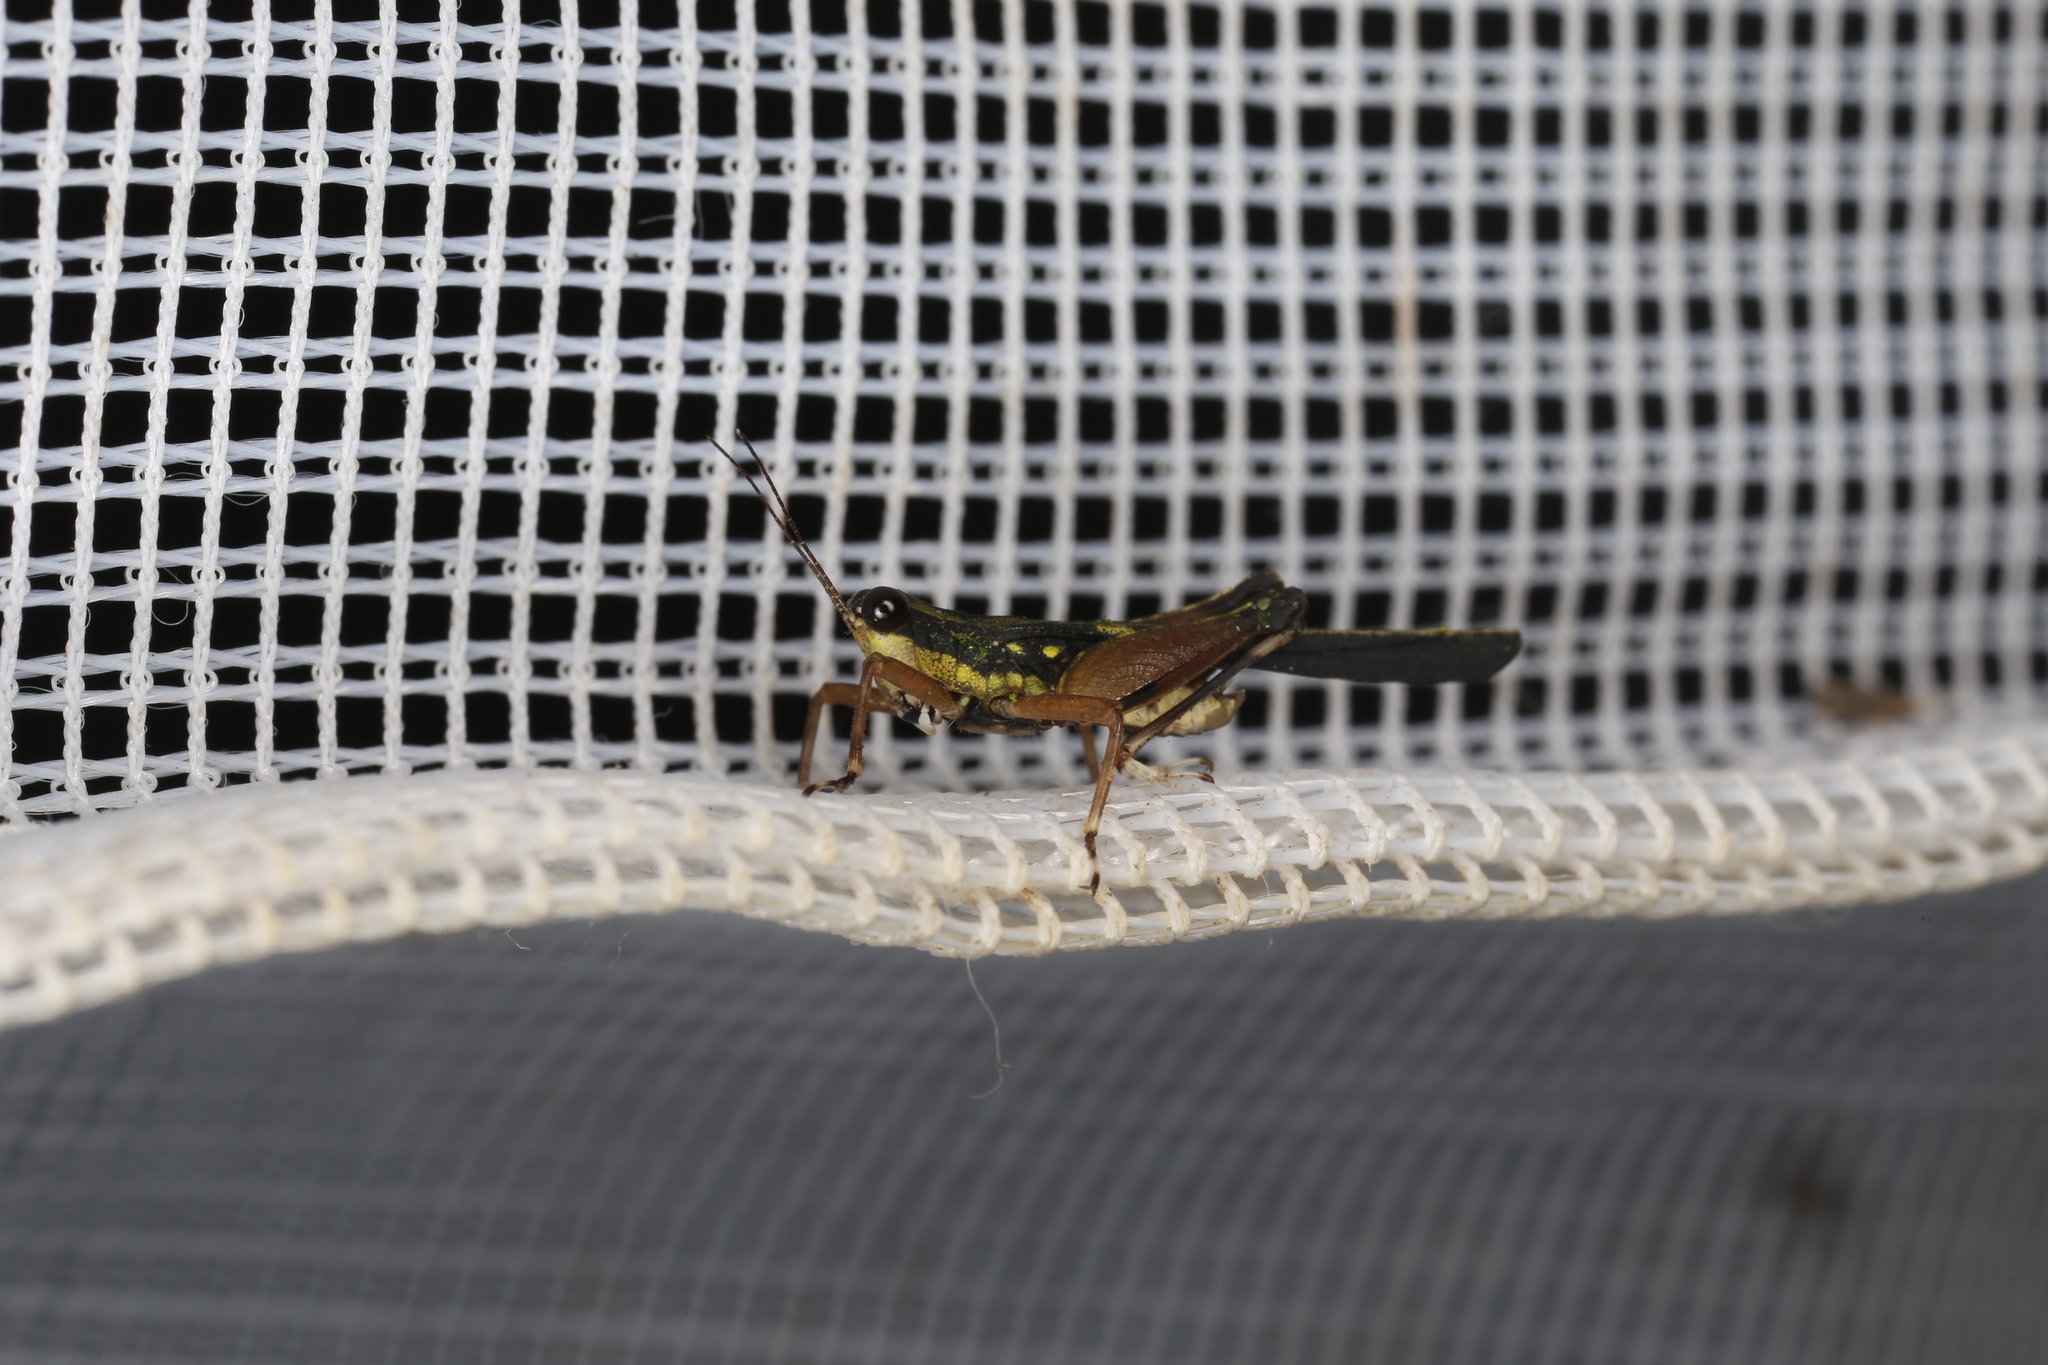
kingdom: Animalia
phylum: Arthropoda
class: Insecta
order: Orthoptera
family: Tetrigidae
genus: Scaria
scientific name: Scaria fasciata
